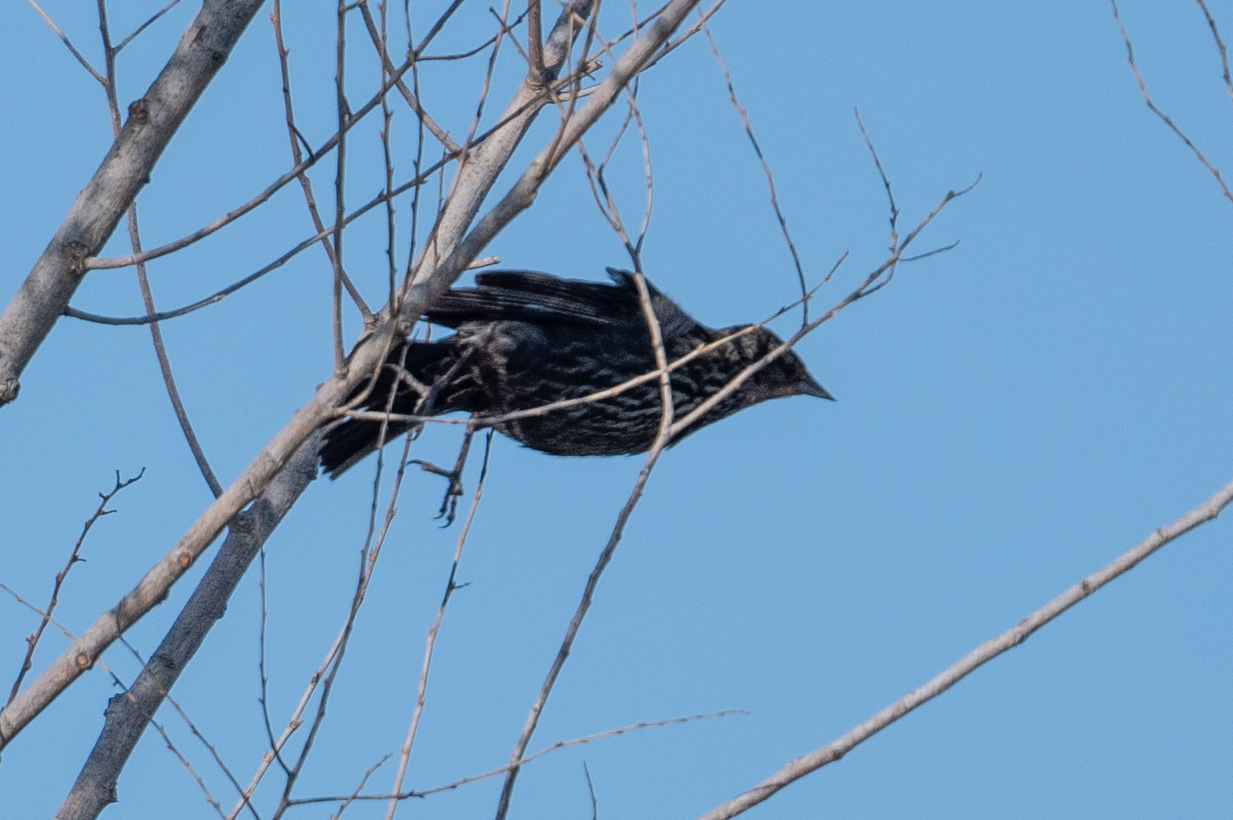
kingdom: Animalia
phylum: Chordata
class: Aves
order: Passeriformes
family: Icteridae
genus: Agelaius
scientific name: Agelaius phoeniceus
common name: Red-winged blackbird
